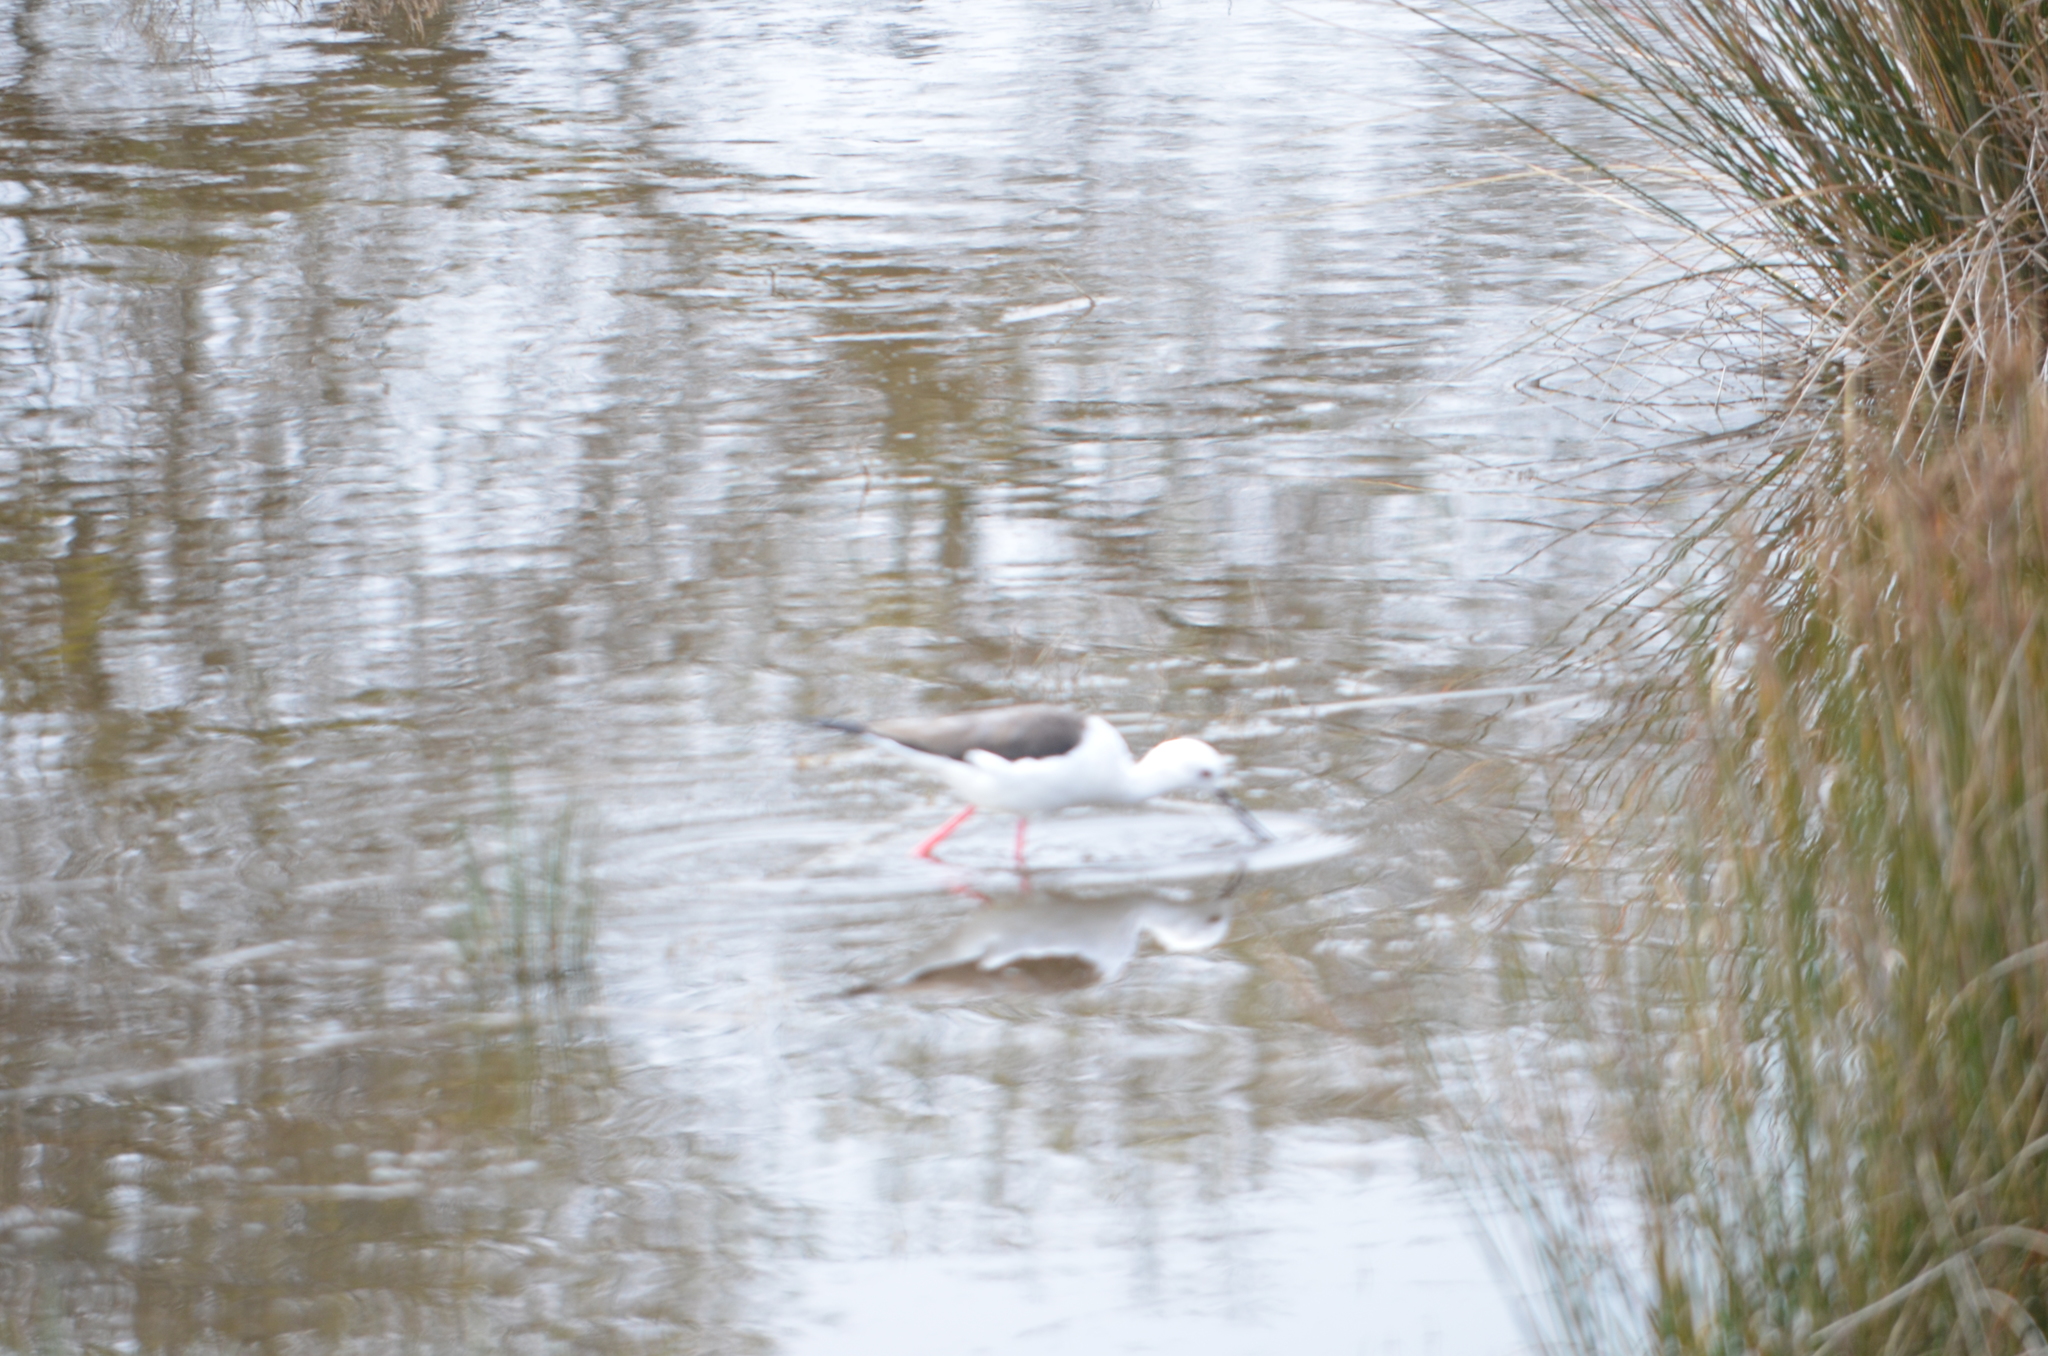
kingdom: Animalia
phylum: Chordata
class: Aves
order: Charadriiformes
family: Recurvirostridae
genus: Himantopus
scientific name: Himantopus himantopus
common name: Black-winged stilt
